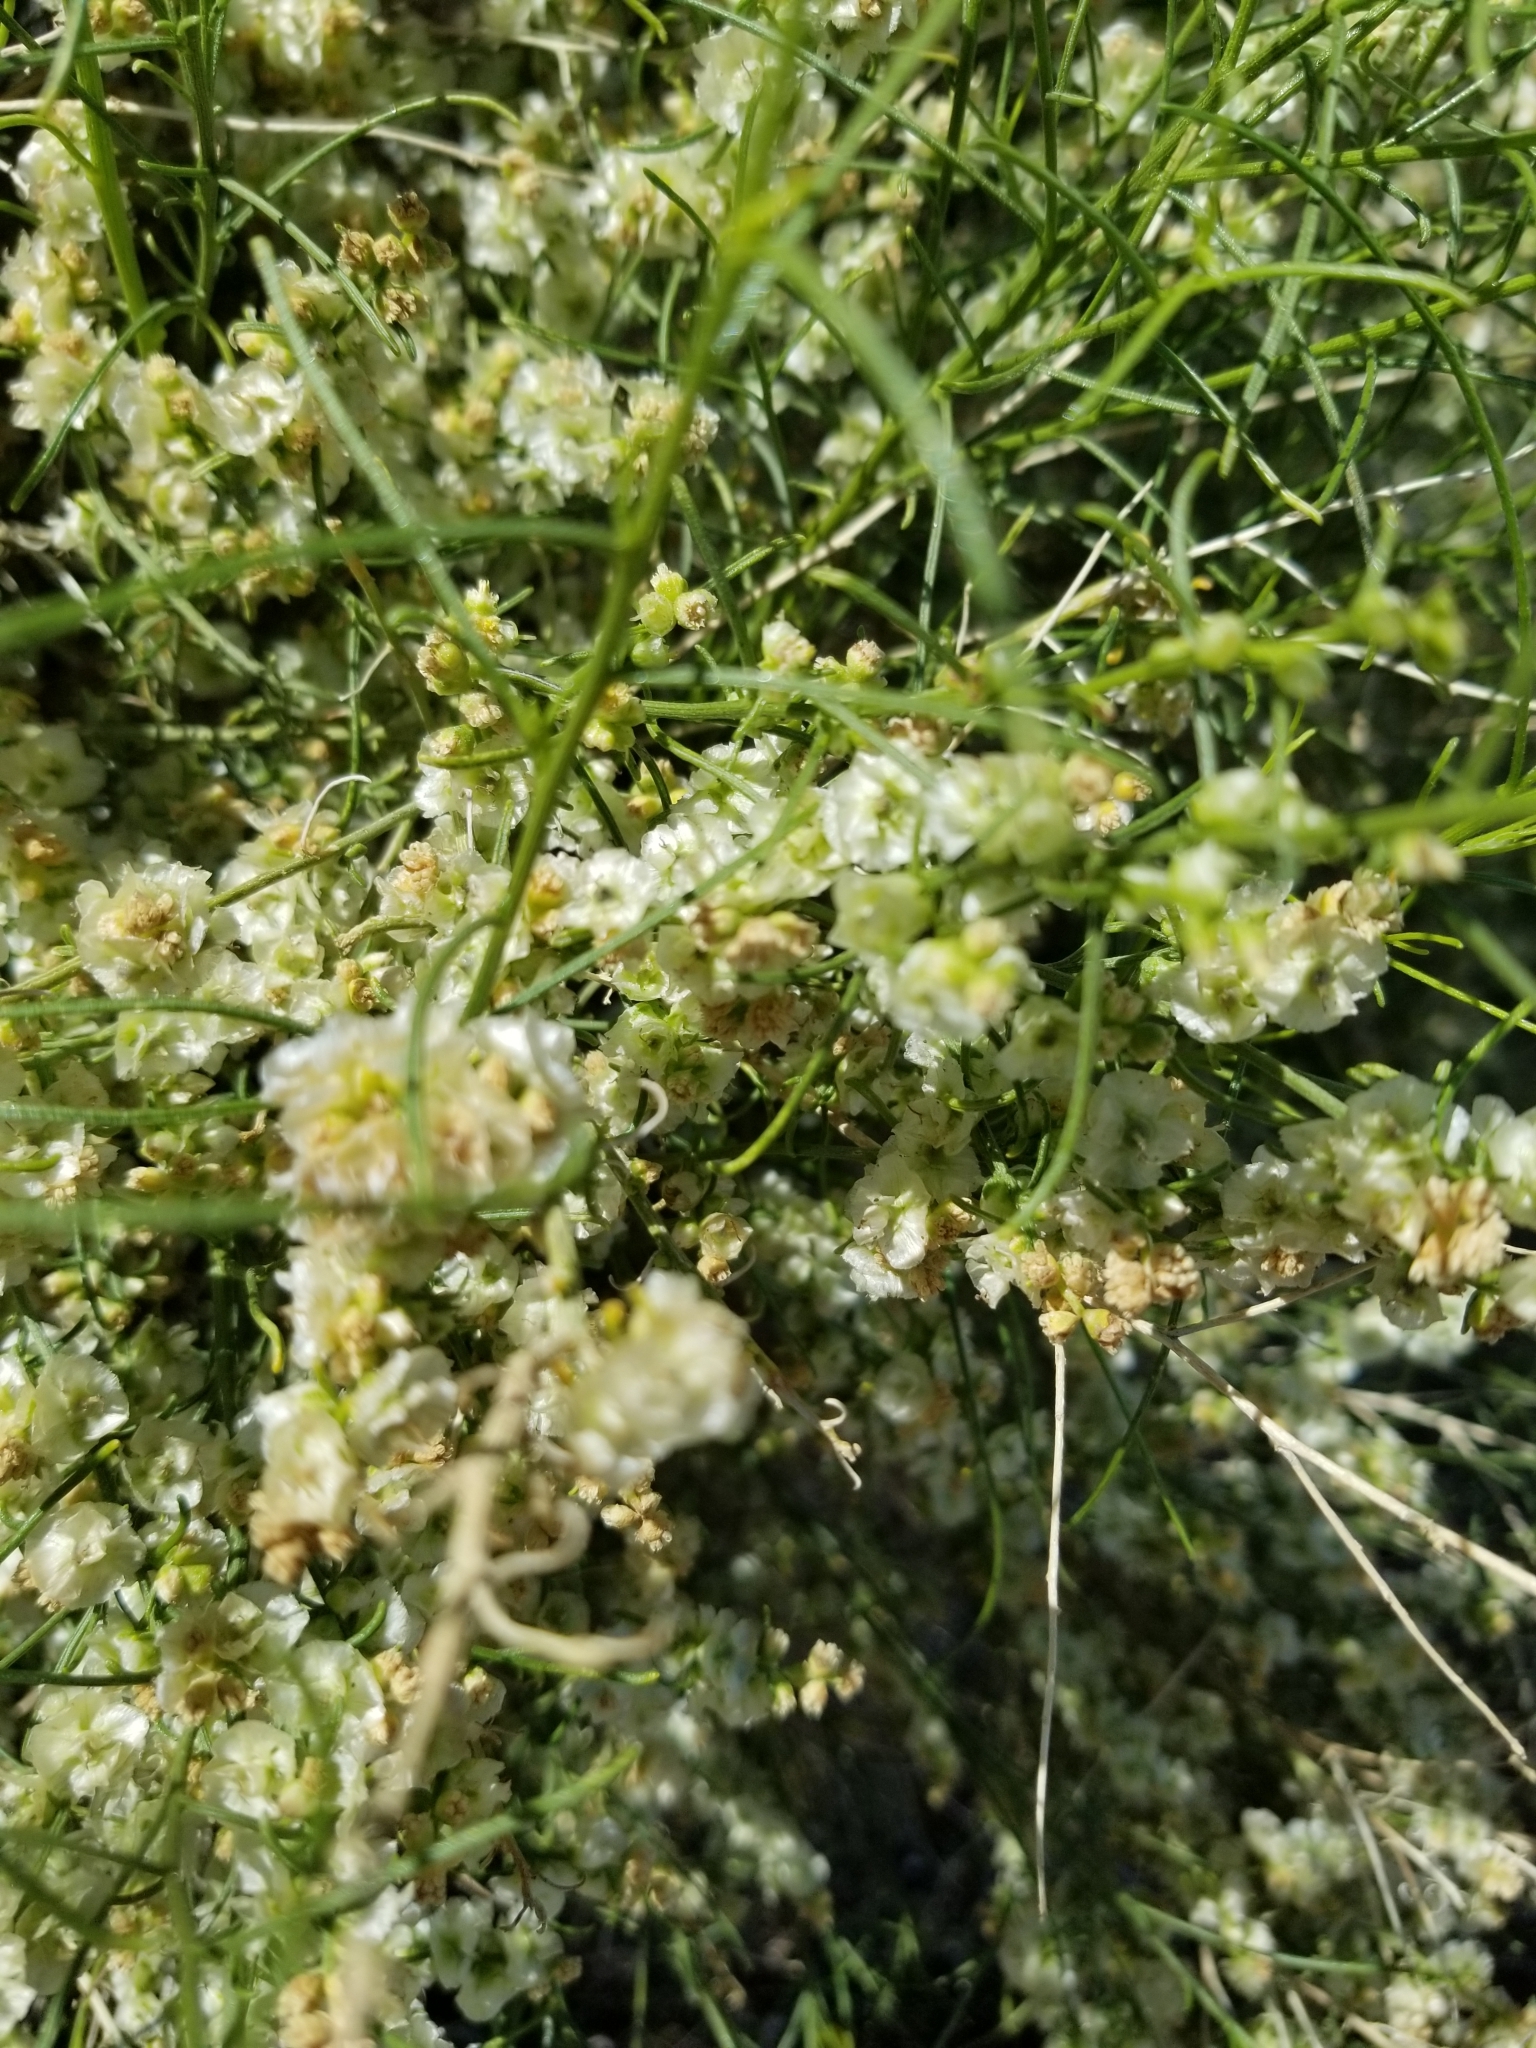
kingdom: Plantae
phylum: Tracheophyta
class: Magnoliopsida
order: Asterales
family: Asteraceae
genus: Ambrosia
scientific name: Ambrosia salsola
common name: Burrobrush
